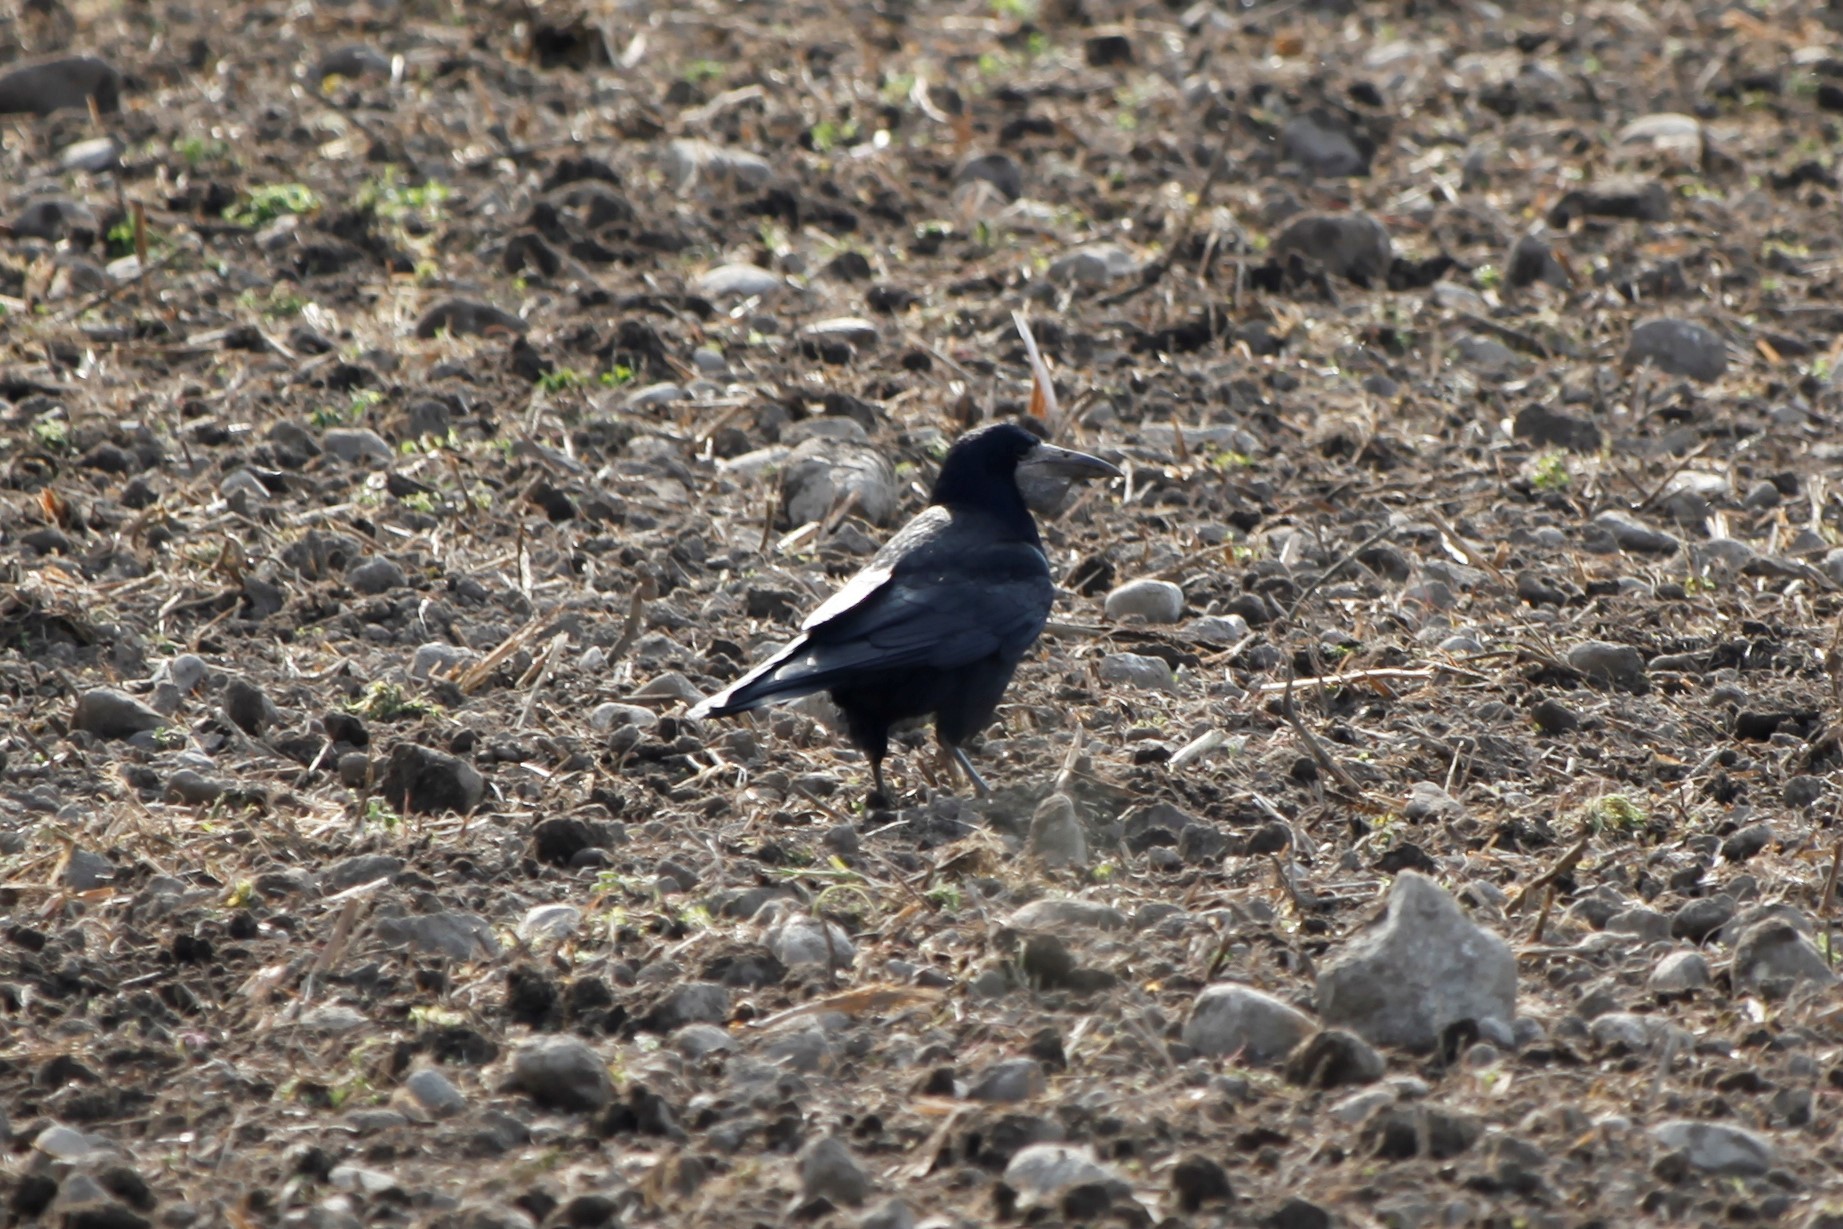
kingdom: Animalia
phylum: Chordata
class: Aves
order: Passeriformes
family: Corvidae
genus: Corvus
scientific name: Corvus frugilegus
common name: Rook
